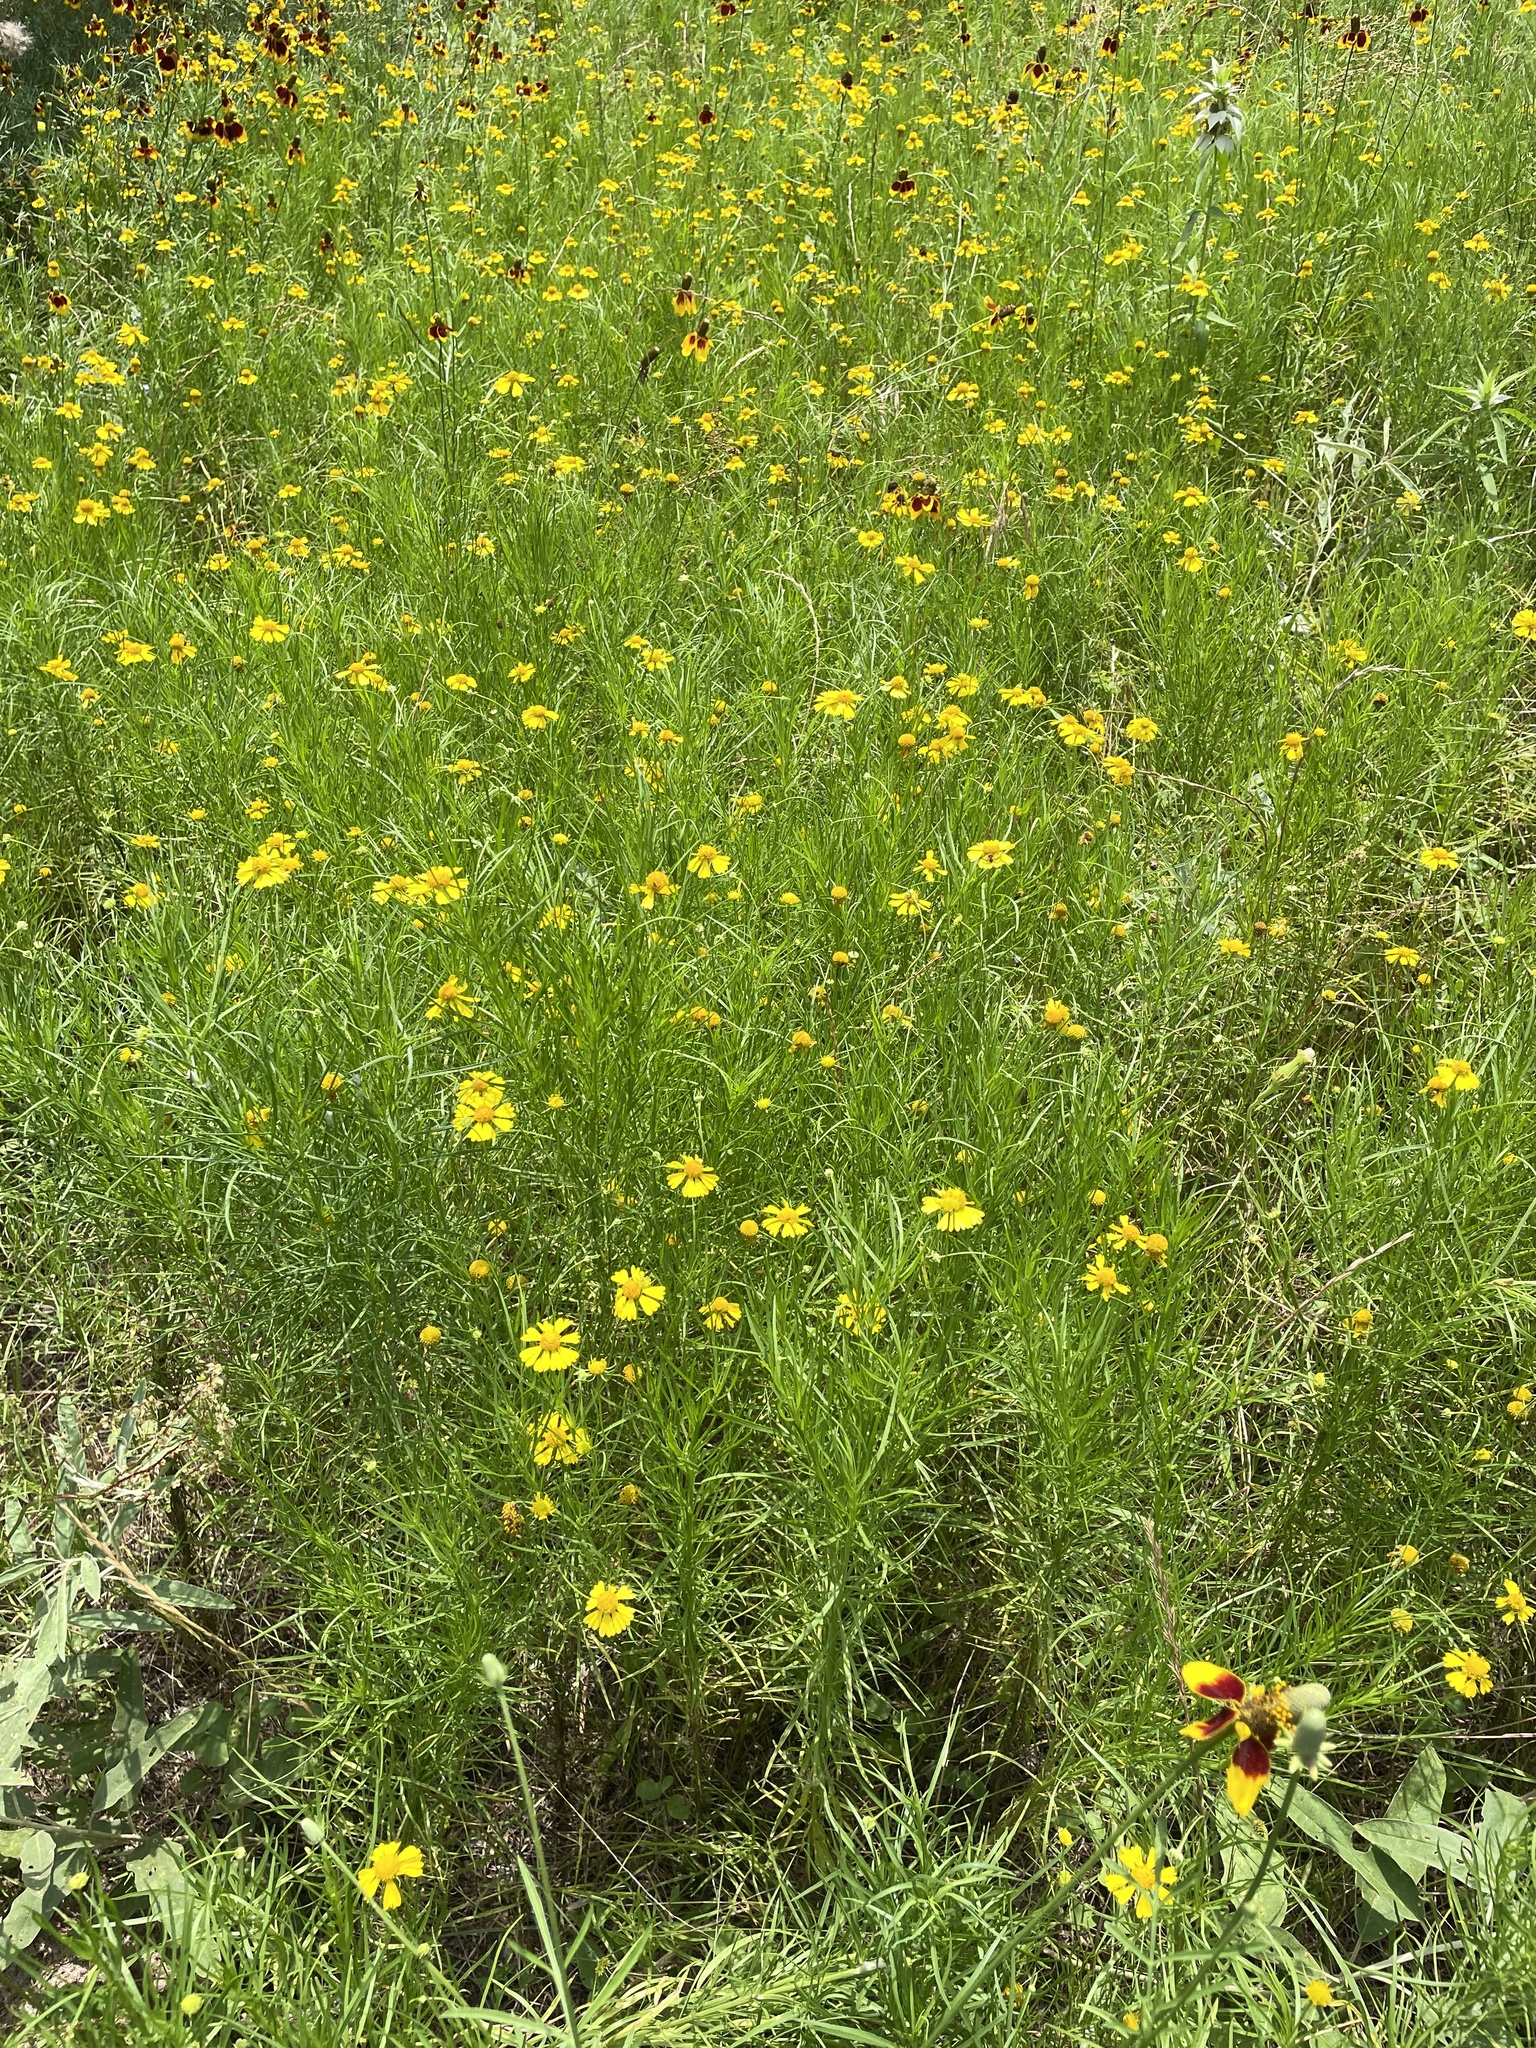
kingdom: Plantae
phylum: Tracheophyta
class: Magnoliopsida
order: Asterales
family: Asteraceae
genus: Helenium
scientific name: Helenium amarum
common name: Bitter sneezeweed
